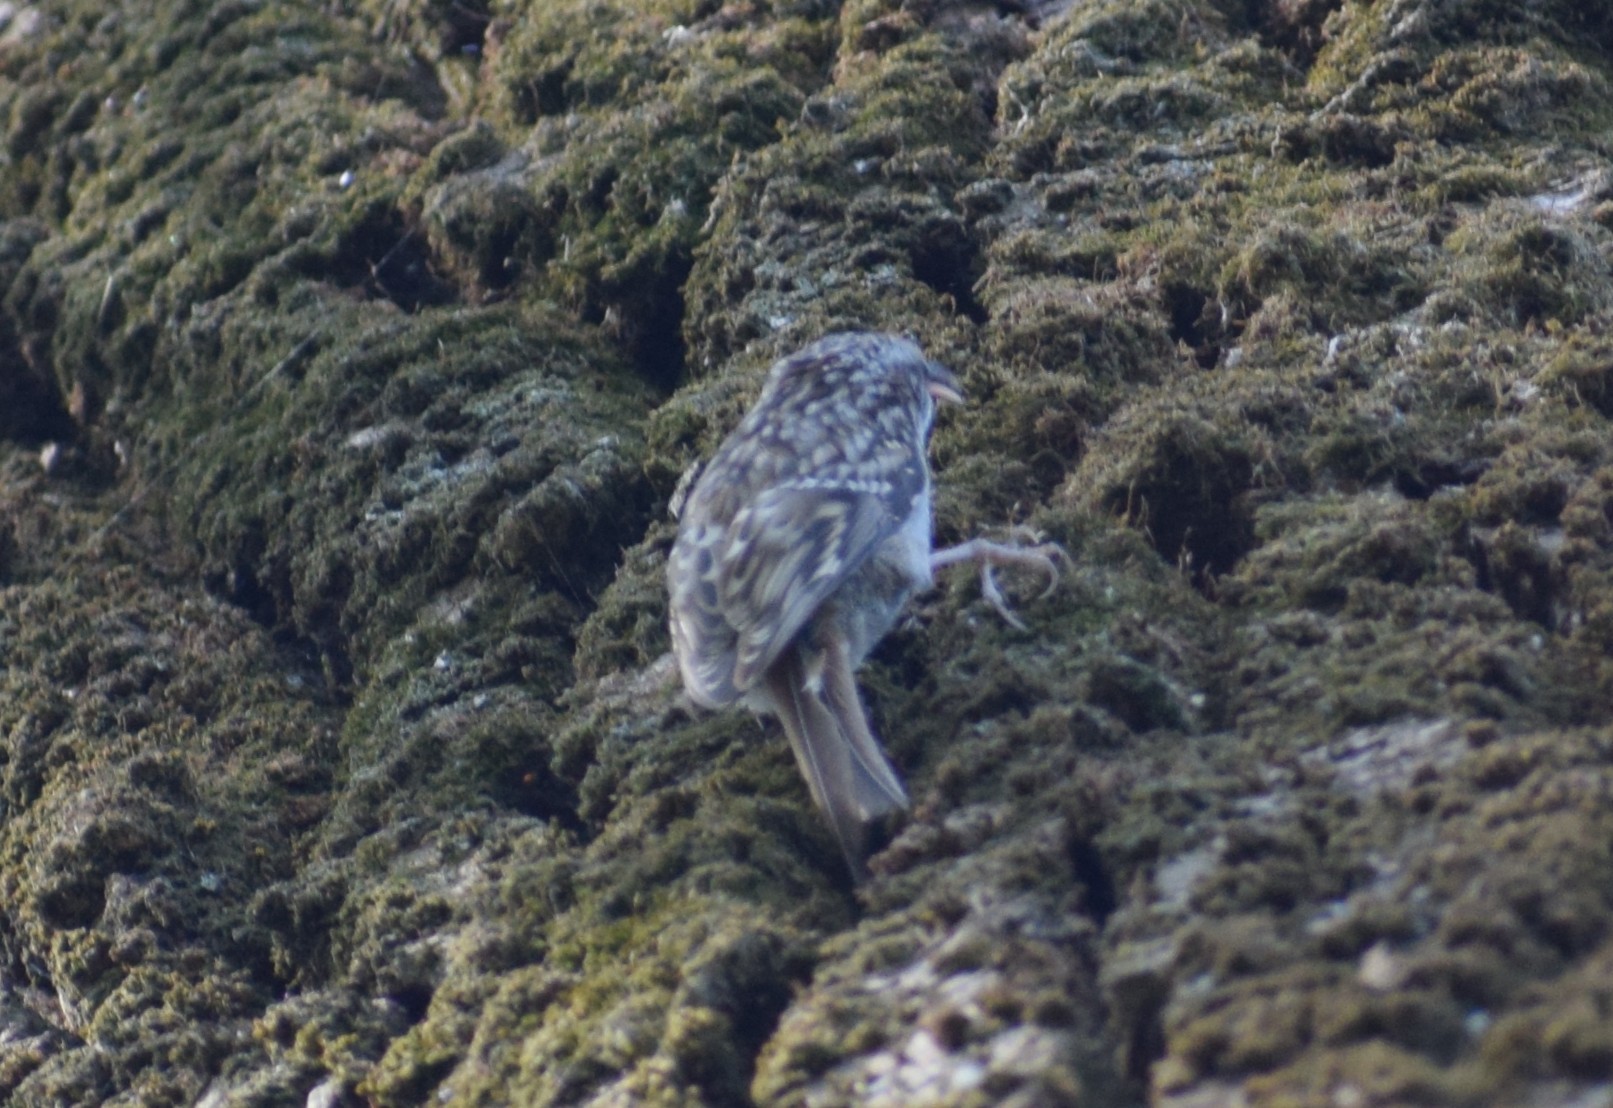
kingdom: Animalia
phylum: Chordata
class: Aves
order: Passeriformes
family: Certhiidae
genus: Certhia
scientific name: Certhia brachydactyla
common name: Short-toed treecreeper
